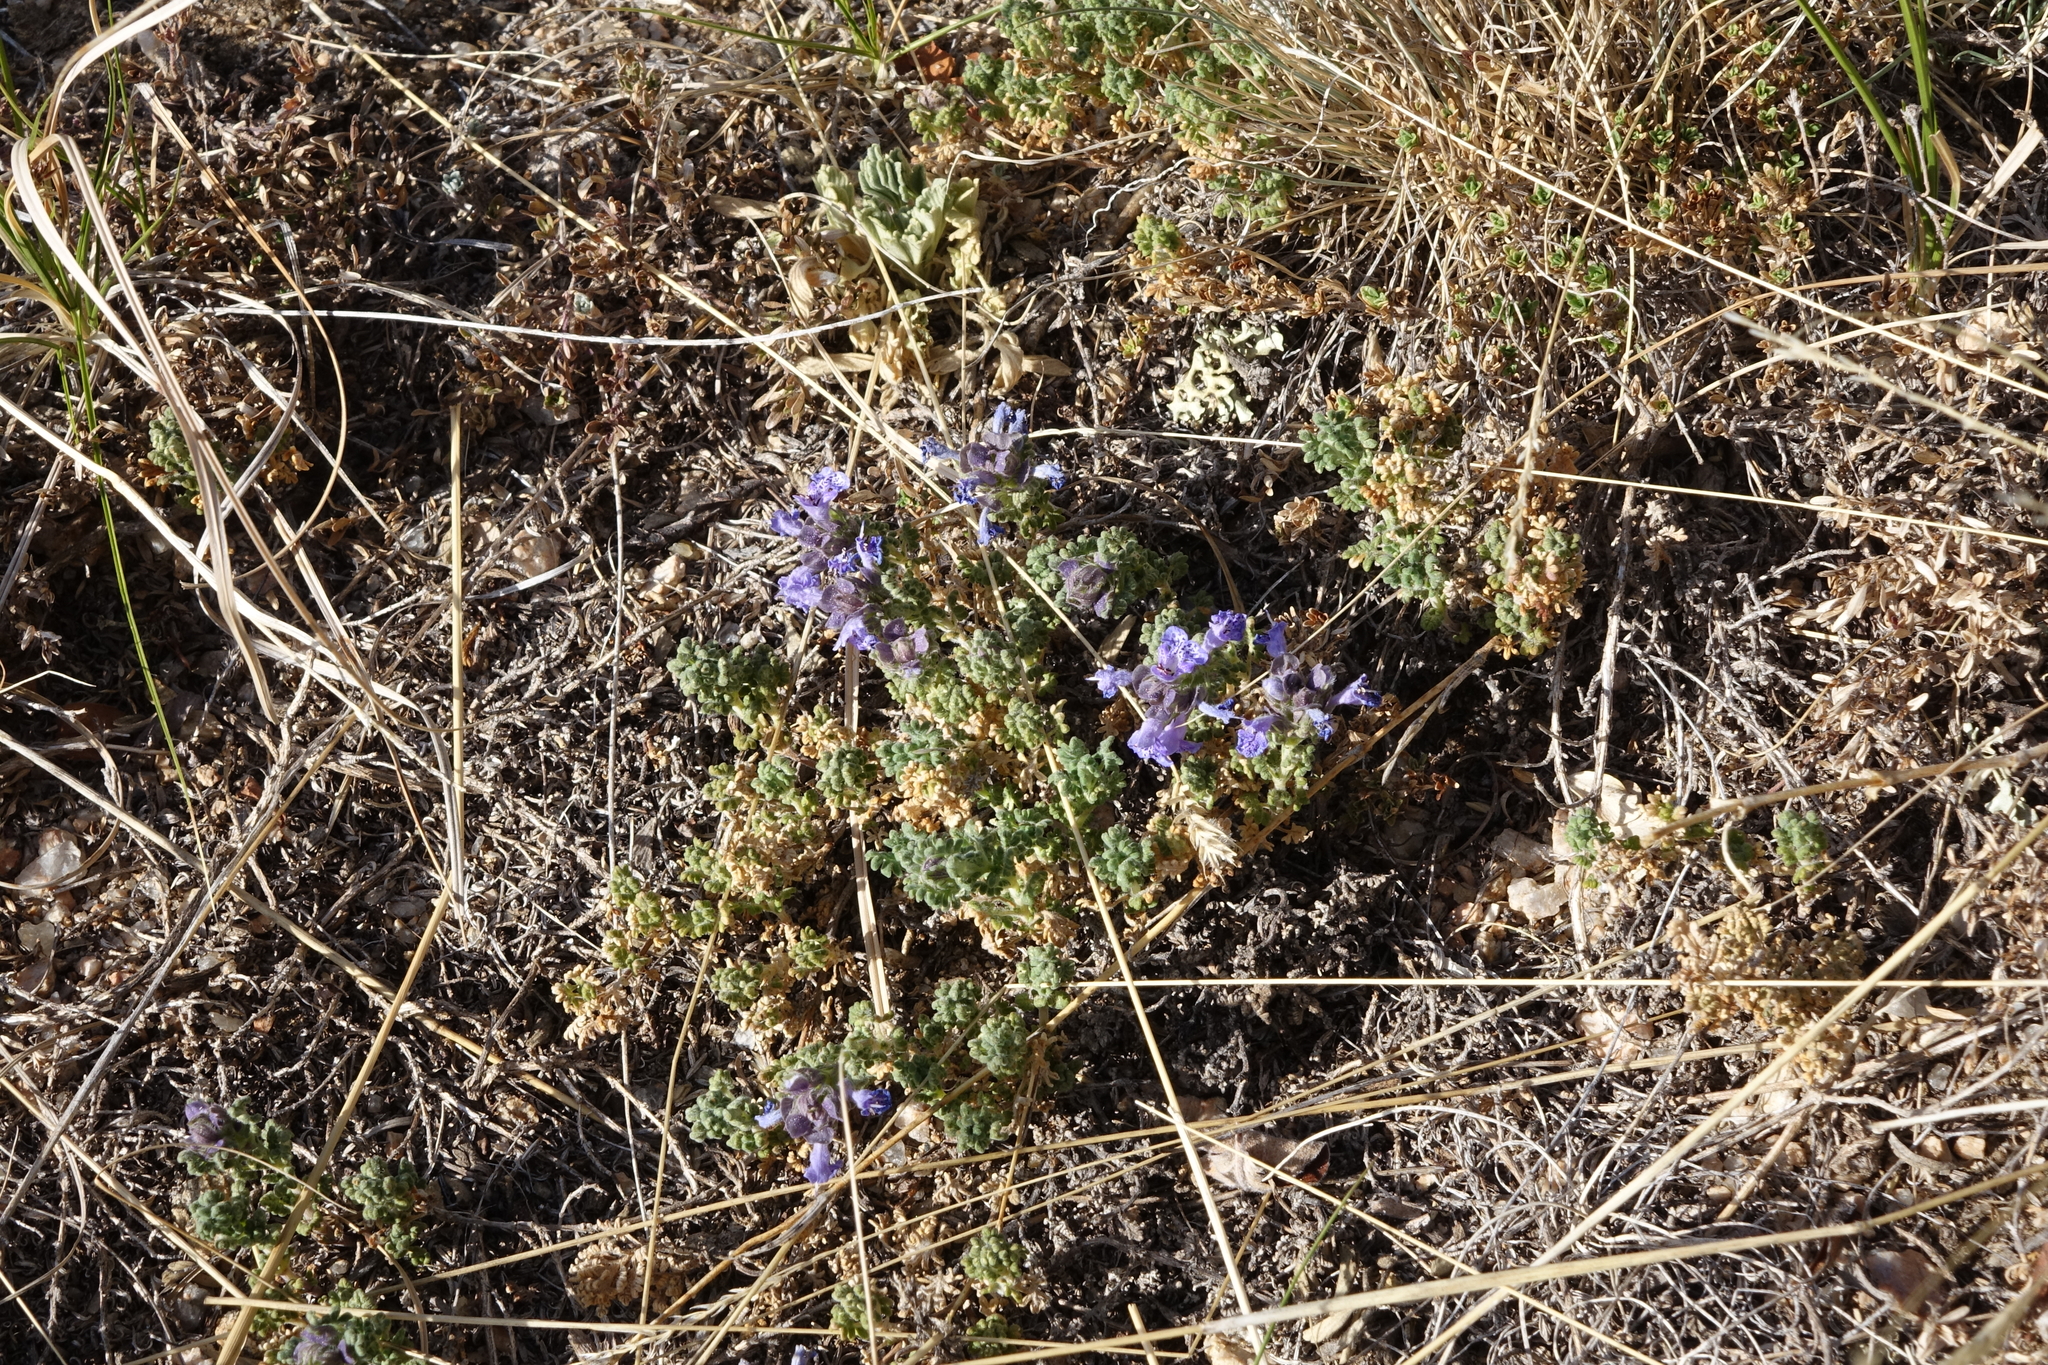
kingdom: Plantae
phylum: Tracheophyta
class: Magnoliopsida
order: Lamiales
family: Lamiaceae
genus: Dracocephalum
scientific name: Dracocephalum origanoides
